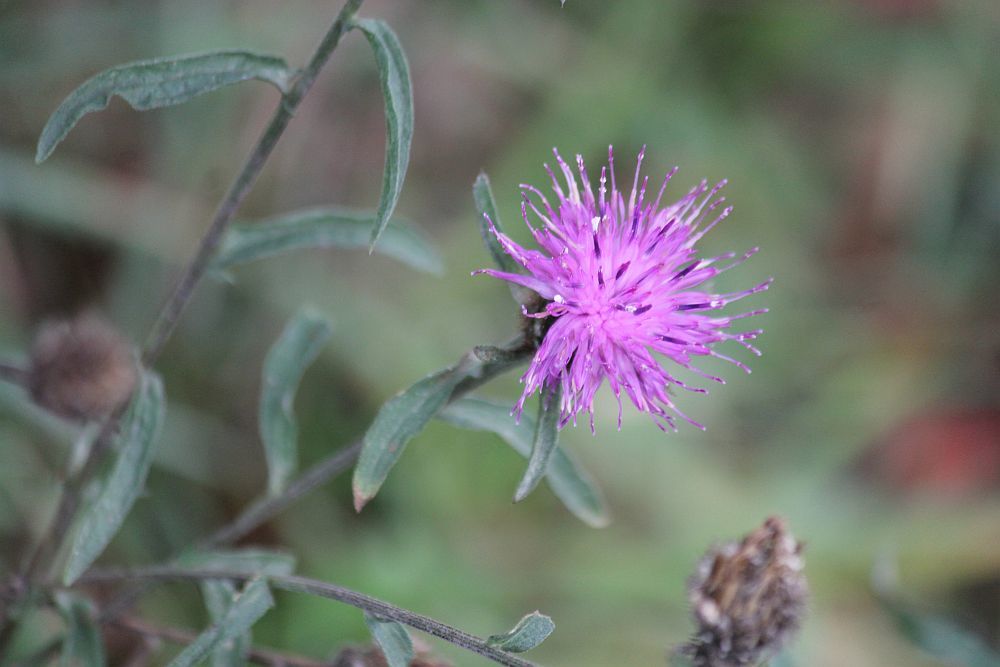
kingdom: Plantae
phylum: Tracheophyta
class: Magnoliopsida
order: Asterales
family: Asteraceae
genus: Centaurea
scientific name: Centaurea nigra
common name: Lesser knapweed
